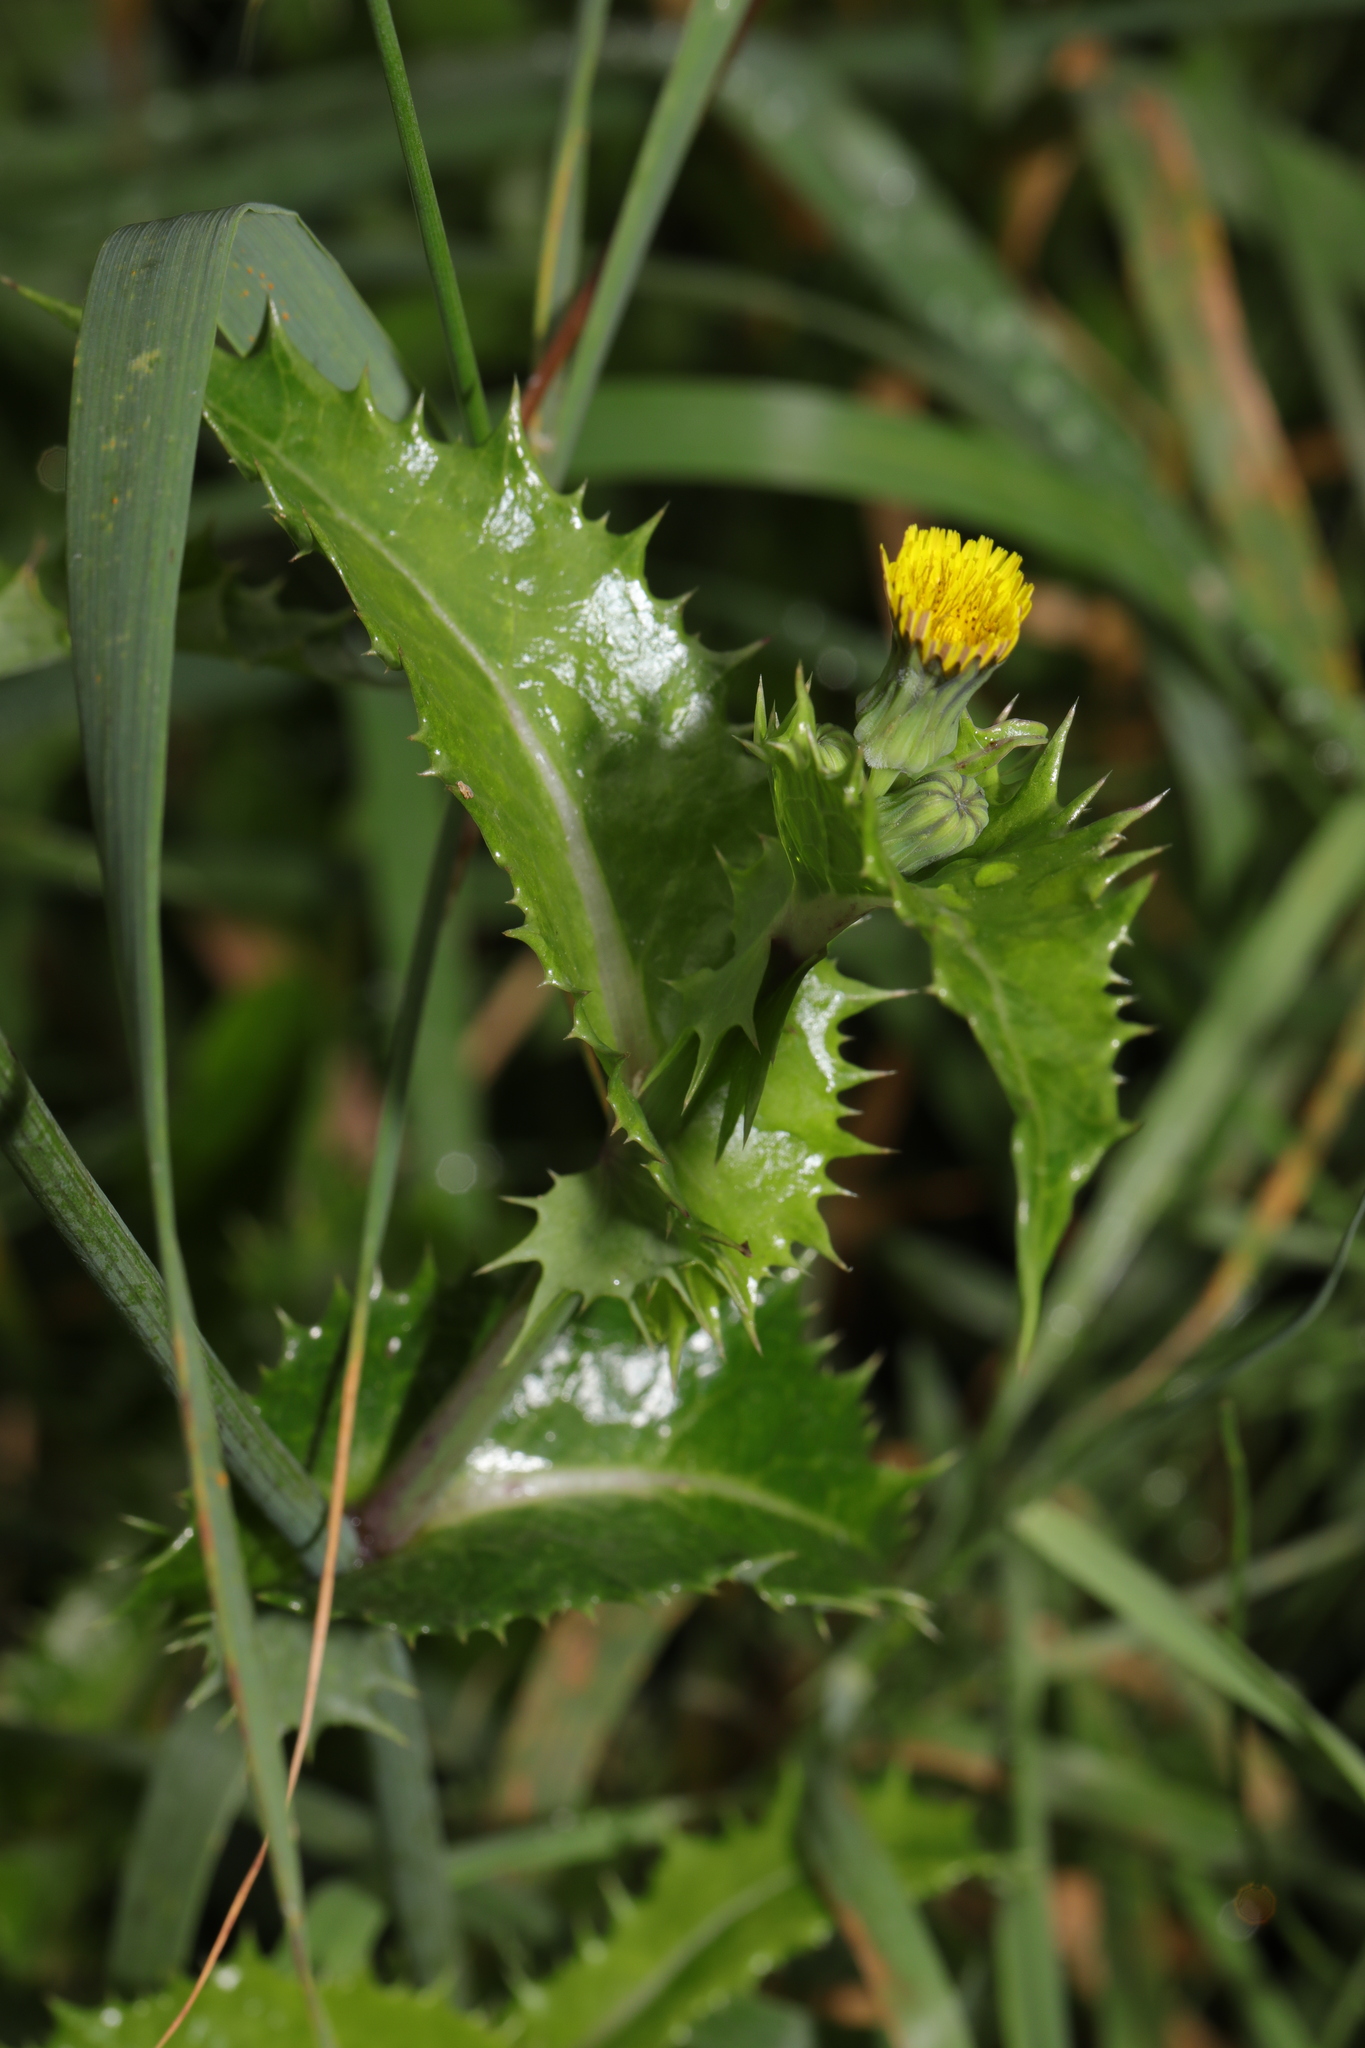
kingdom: Plantae
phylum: Tracheophyta
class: Magnoliopsida
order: Asterales
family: Asteraceae
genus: Sonchus
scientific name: Sonchus asper
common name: Prickly sow-thistle
